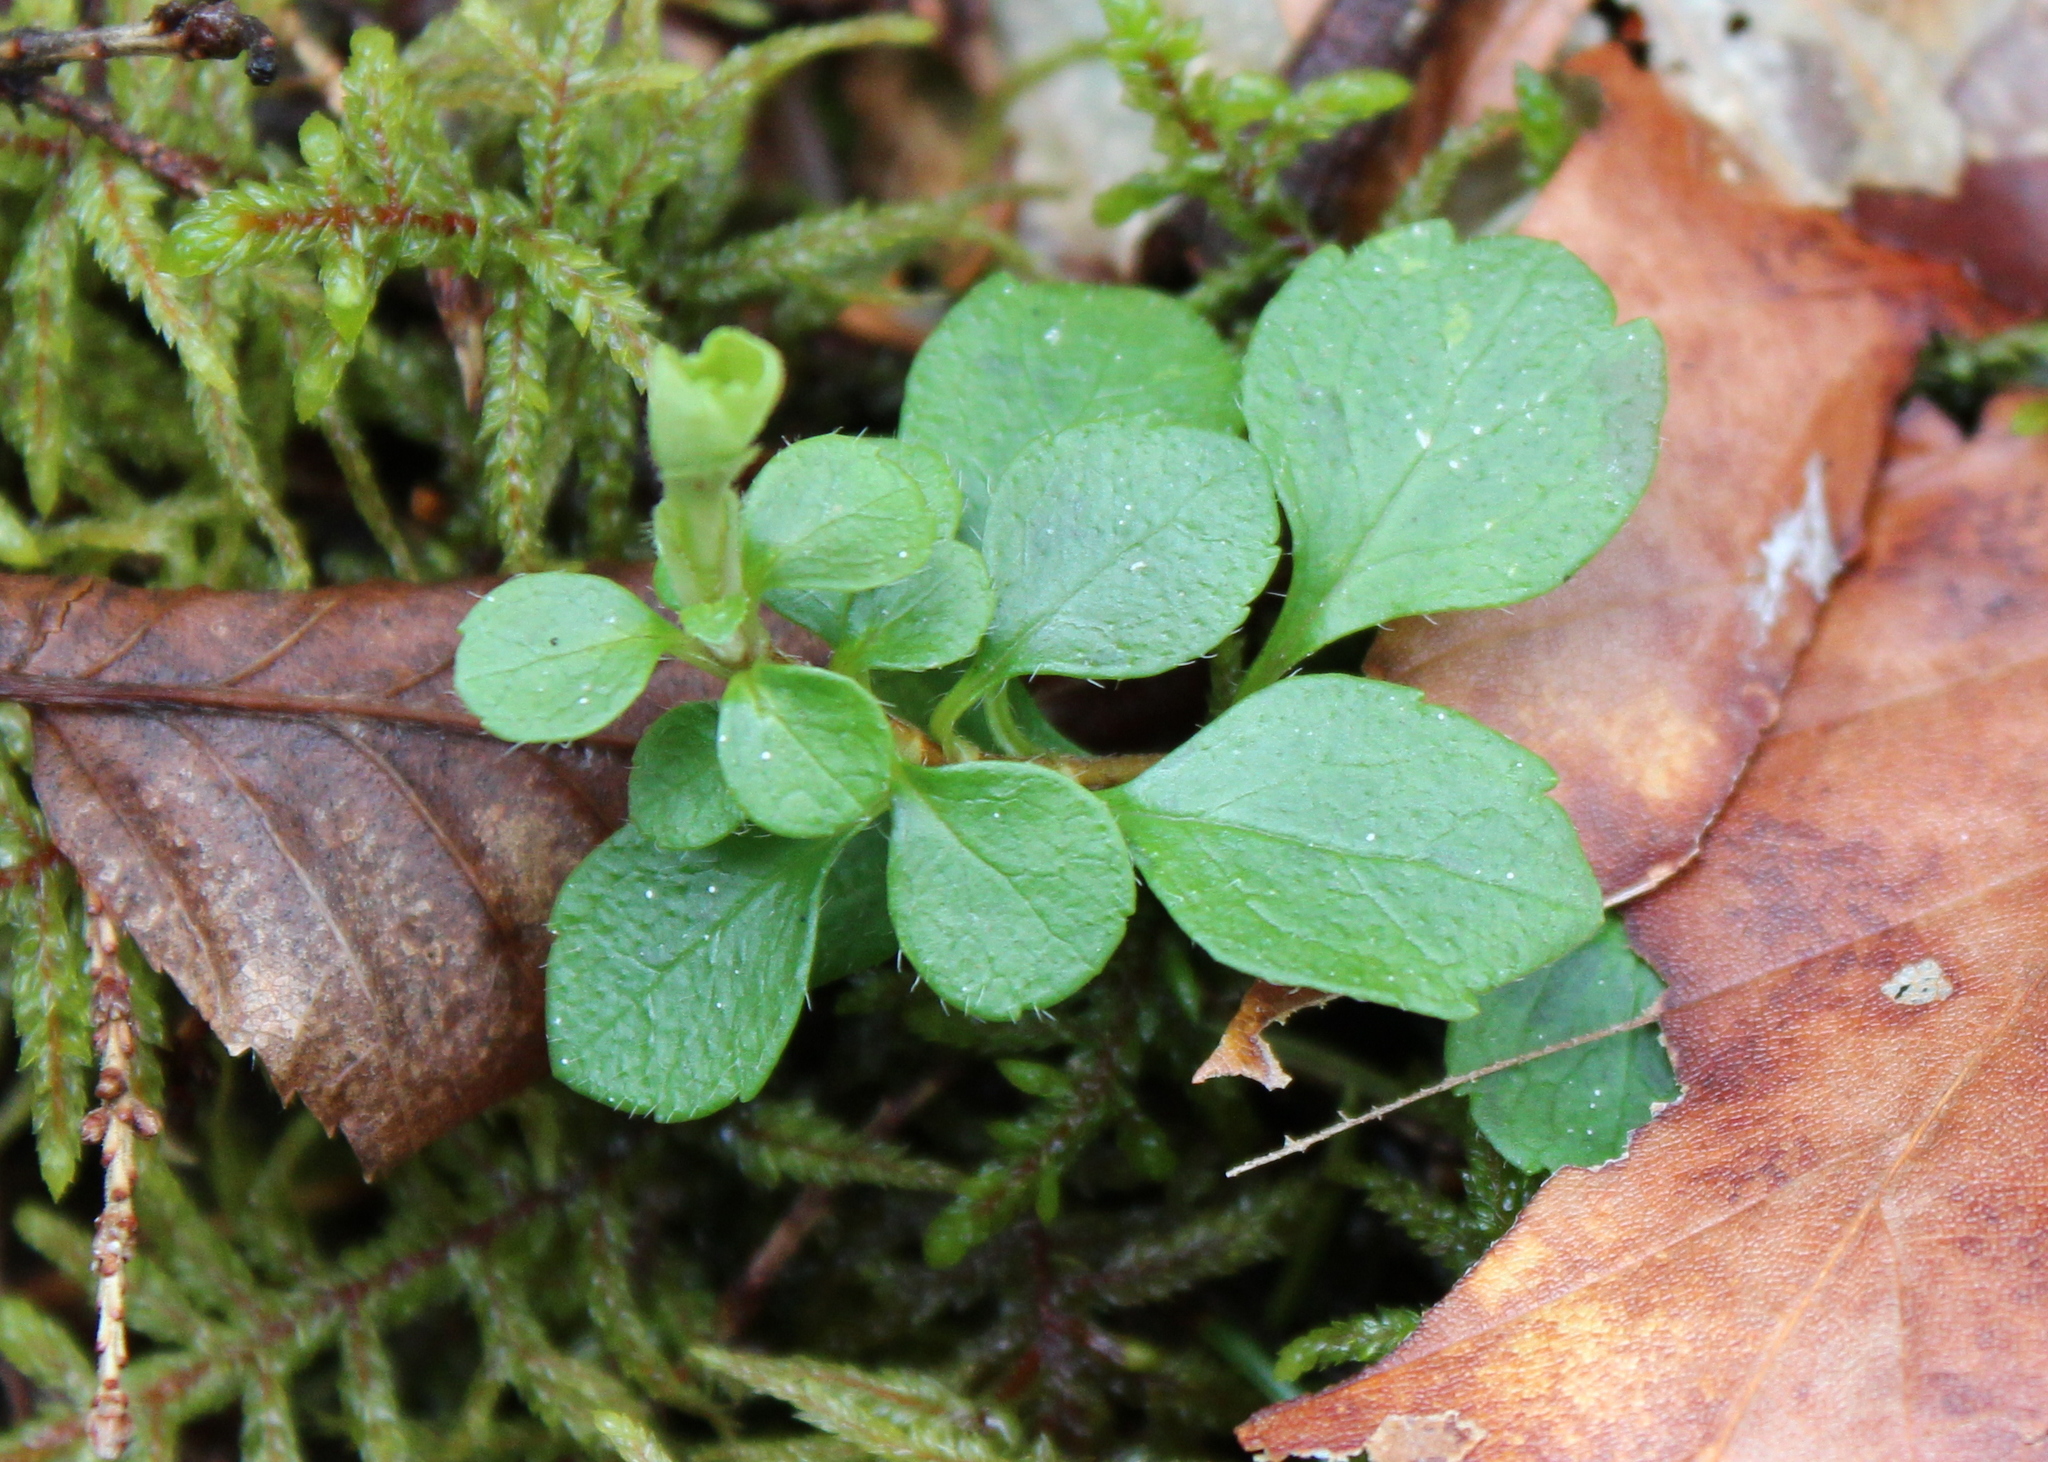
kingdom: Plantae
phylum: Tracheophyta
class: Magnoliopsida
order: Dipsacales
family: Caprifoliaceae
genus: Linnaea
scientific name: Linnaea borealis
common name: Twinflower
